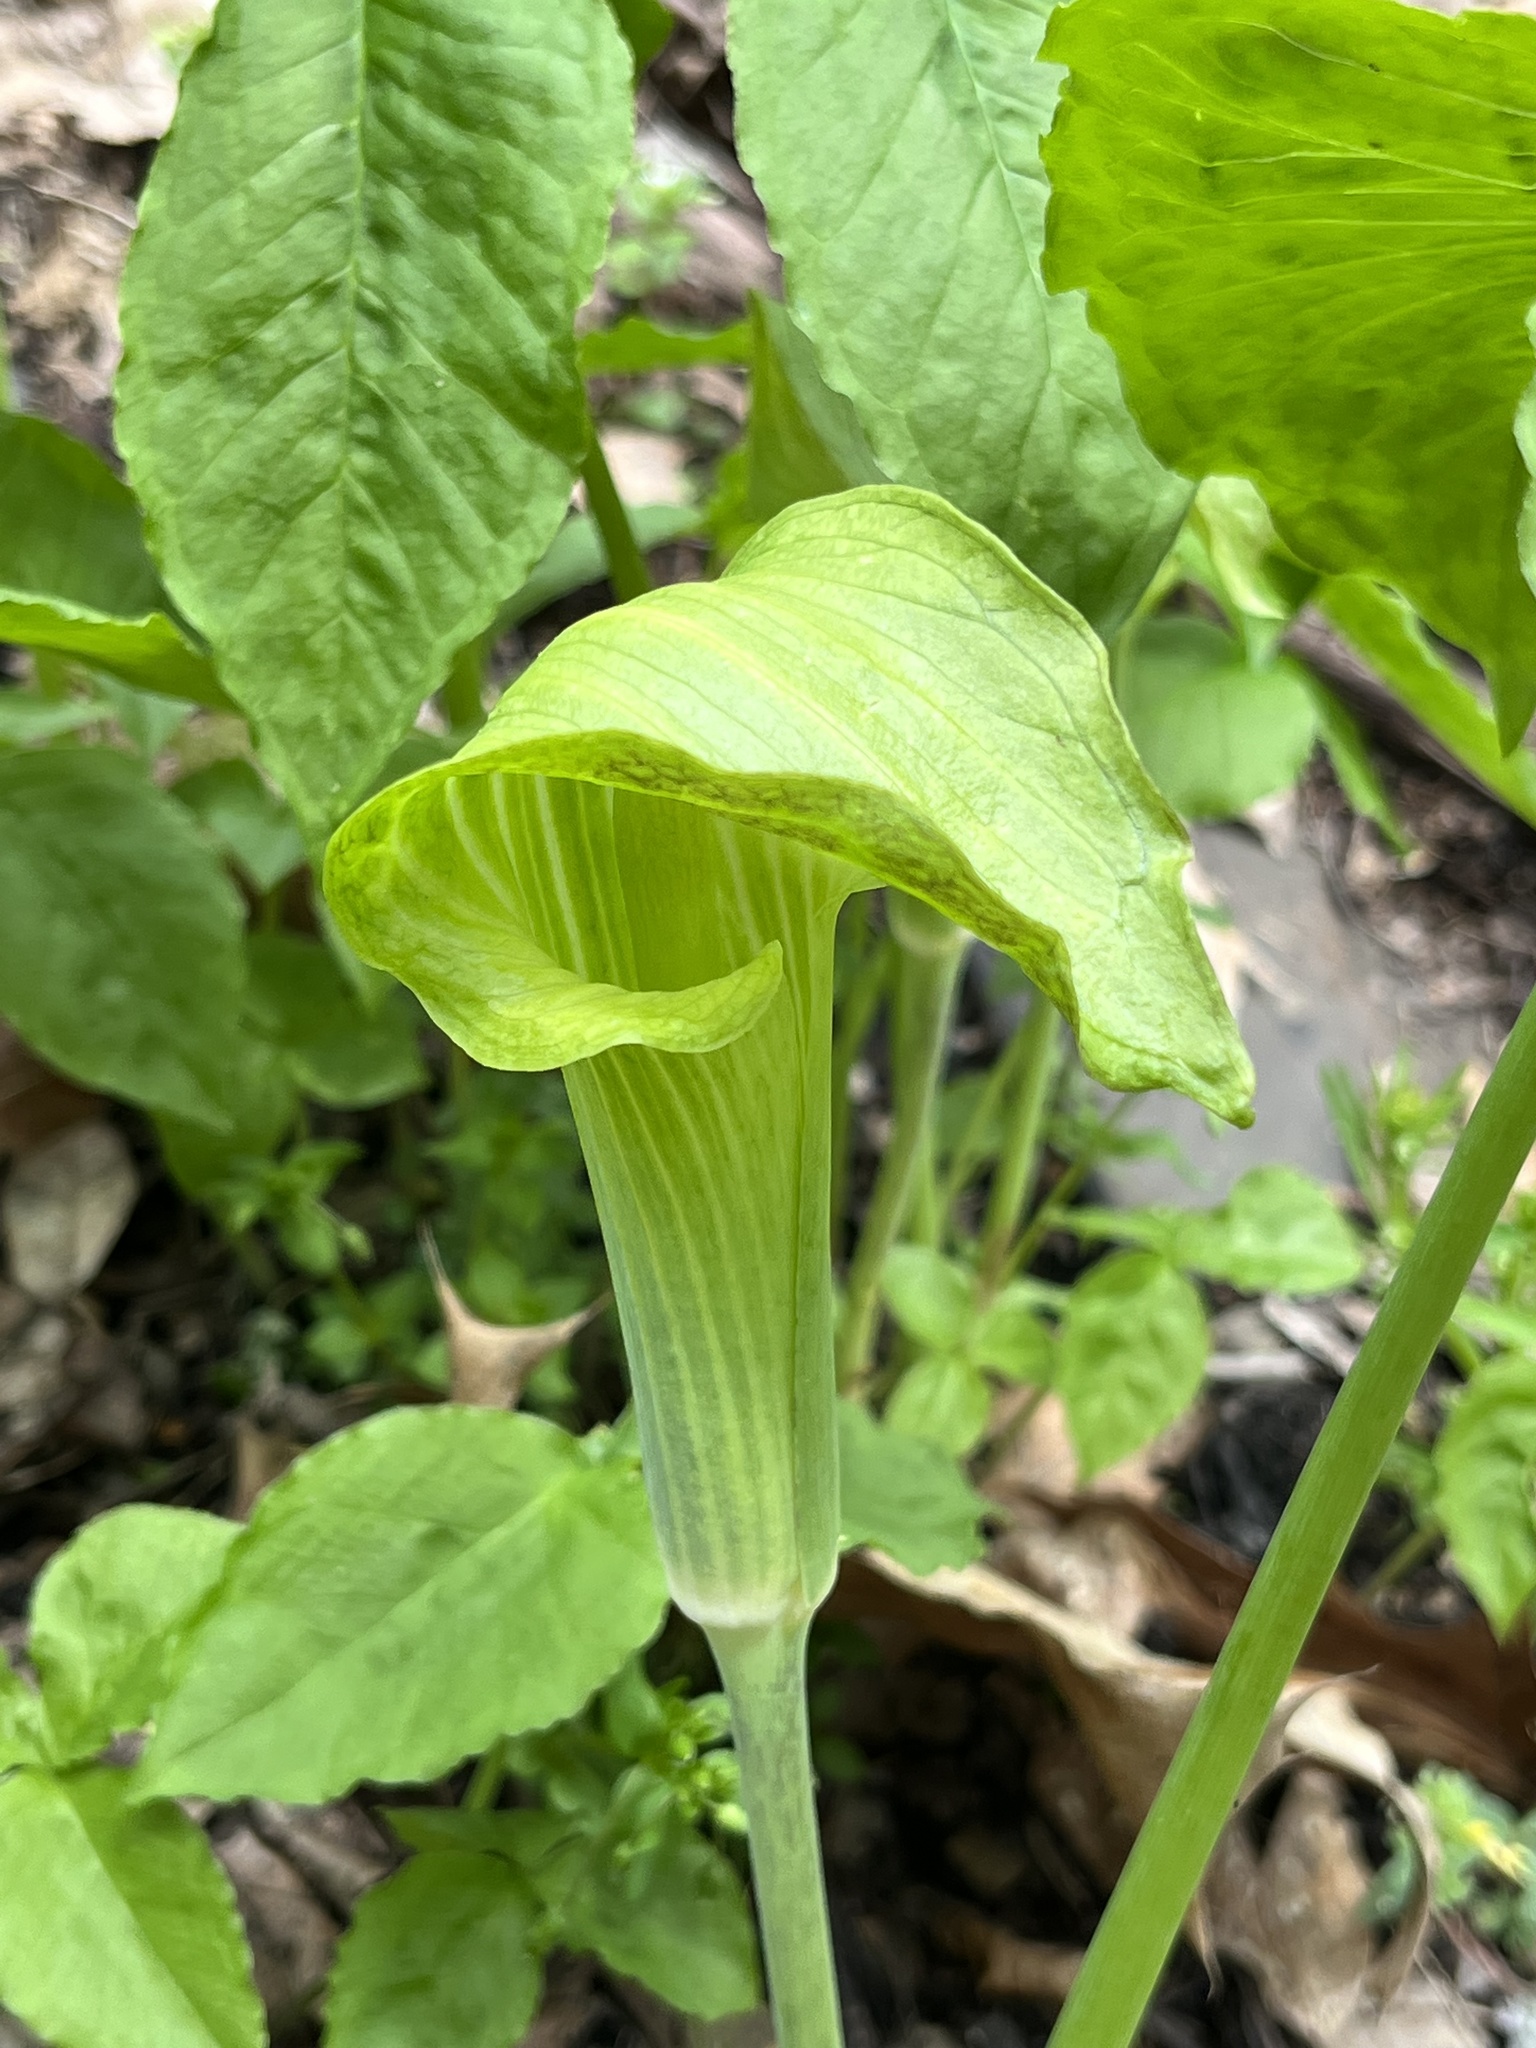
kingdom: Plantae
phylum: Tracheophyta
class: Liliopsida
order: Alismatales
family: Araceae
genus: Arisaema
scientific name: Arisaema triphyllum
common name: Jack-in-the-pulpit
